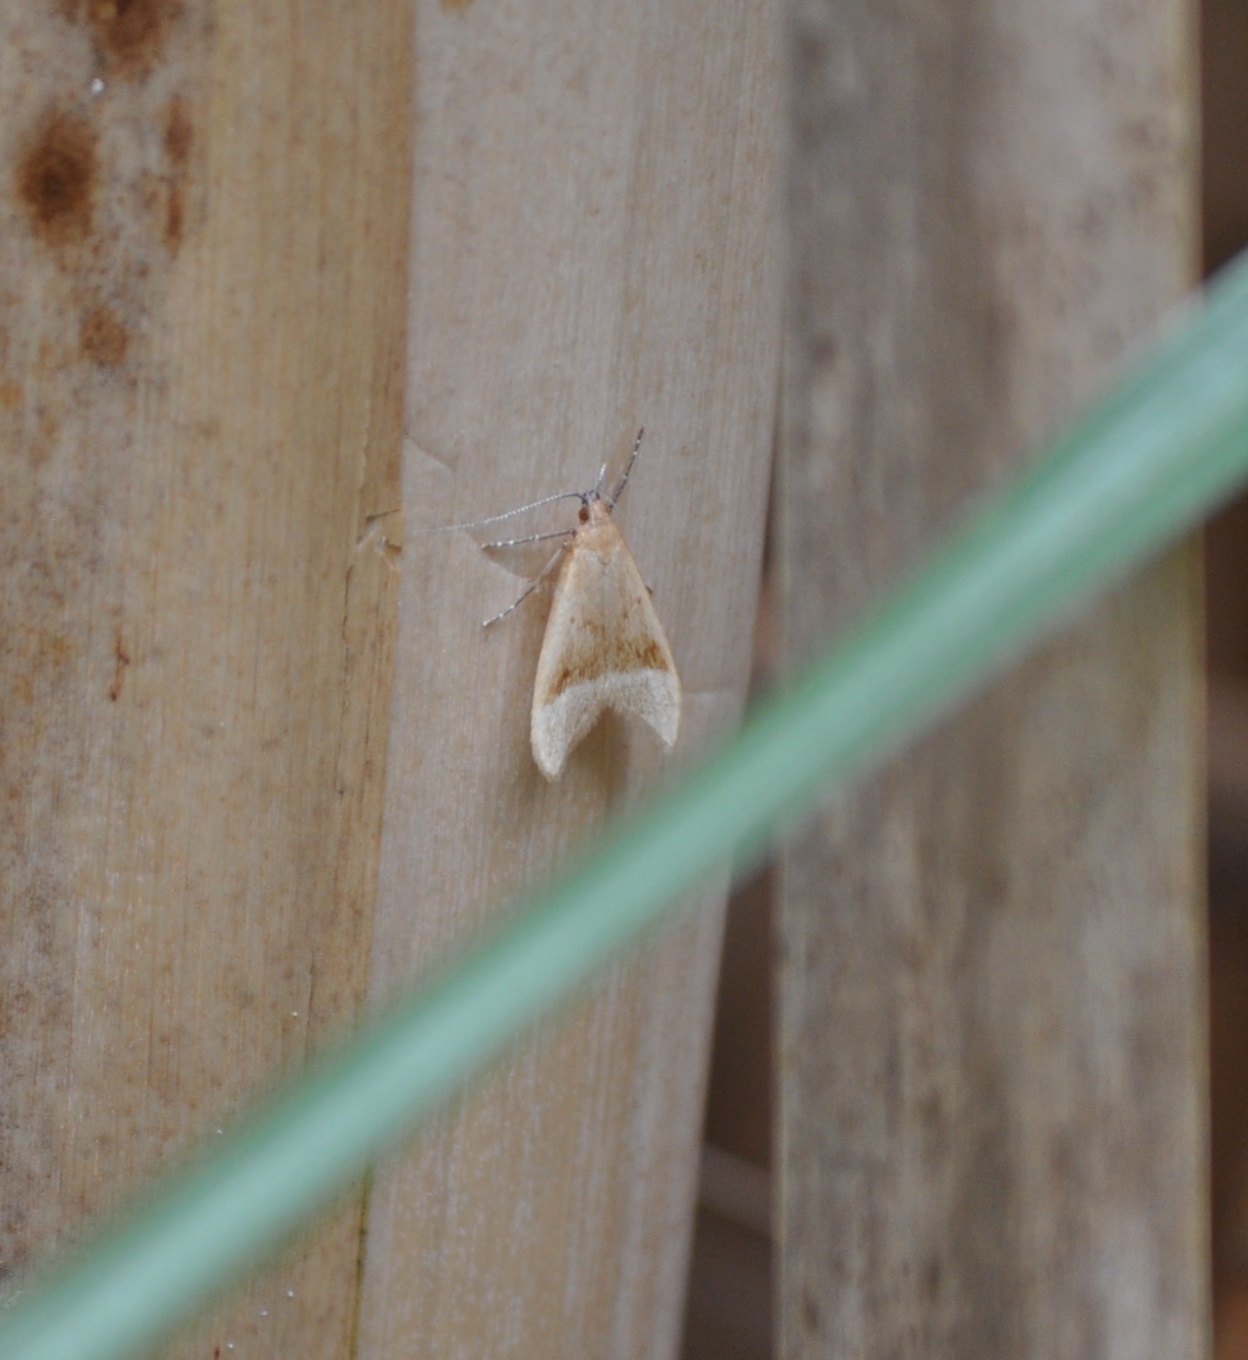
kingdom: Animalia
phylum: Arthropoda
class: Insecta
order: Lepidoptera
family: Oecophoridae
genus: Gymnobathra
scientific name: Gymnobathra hyetodes
